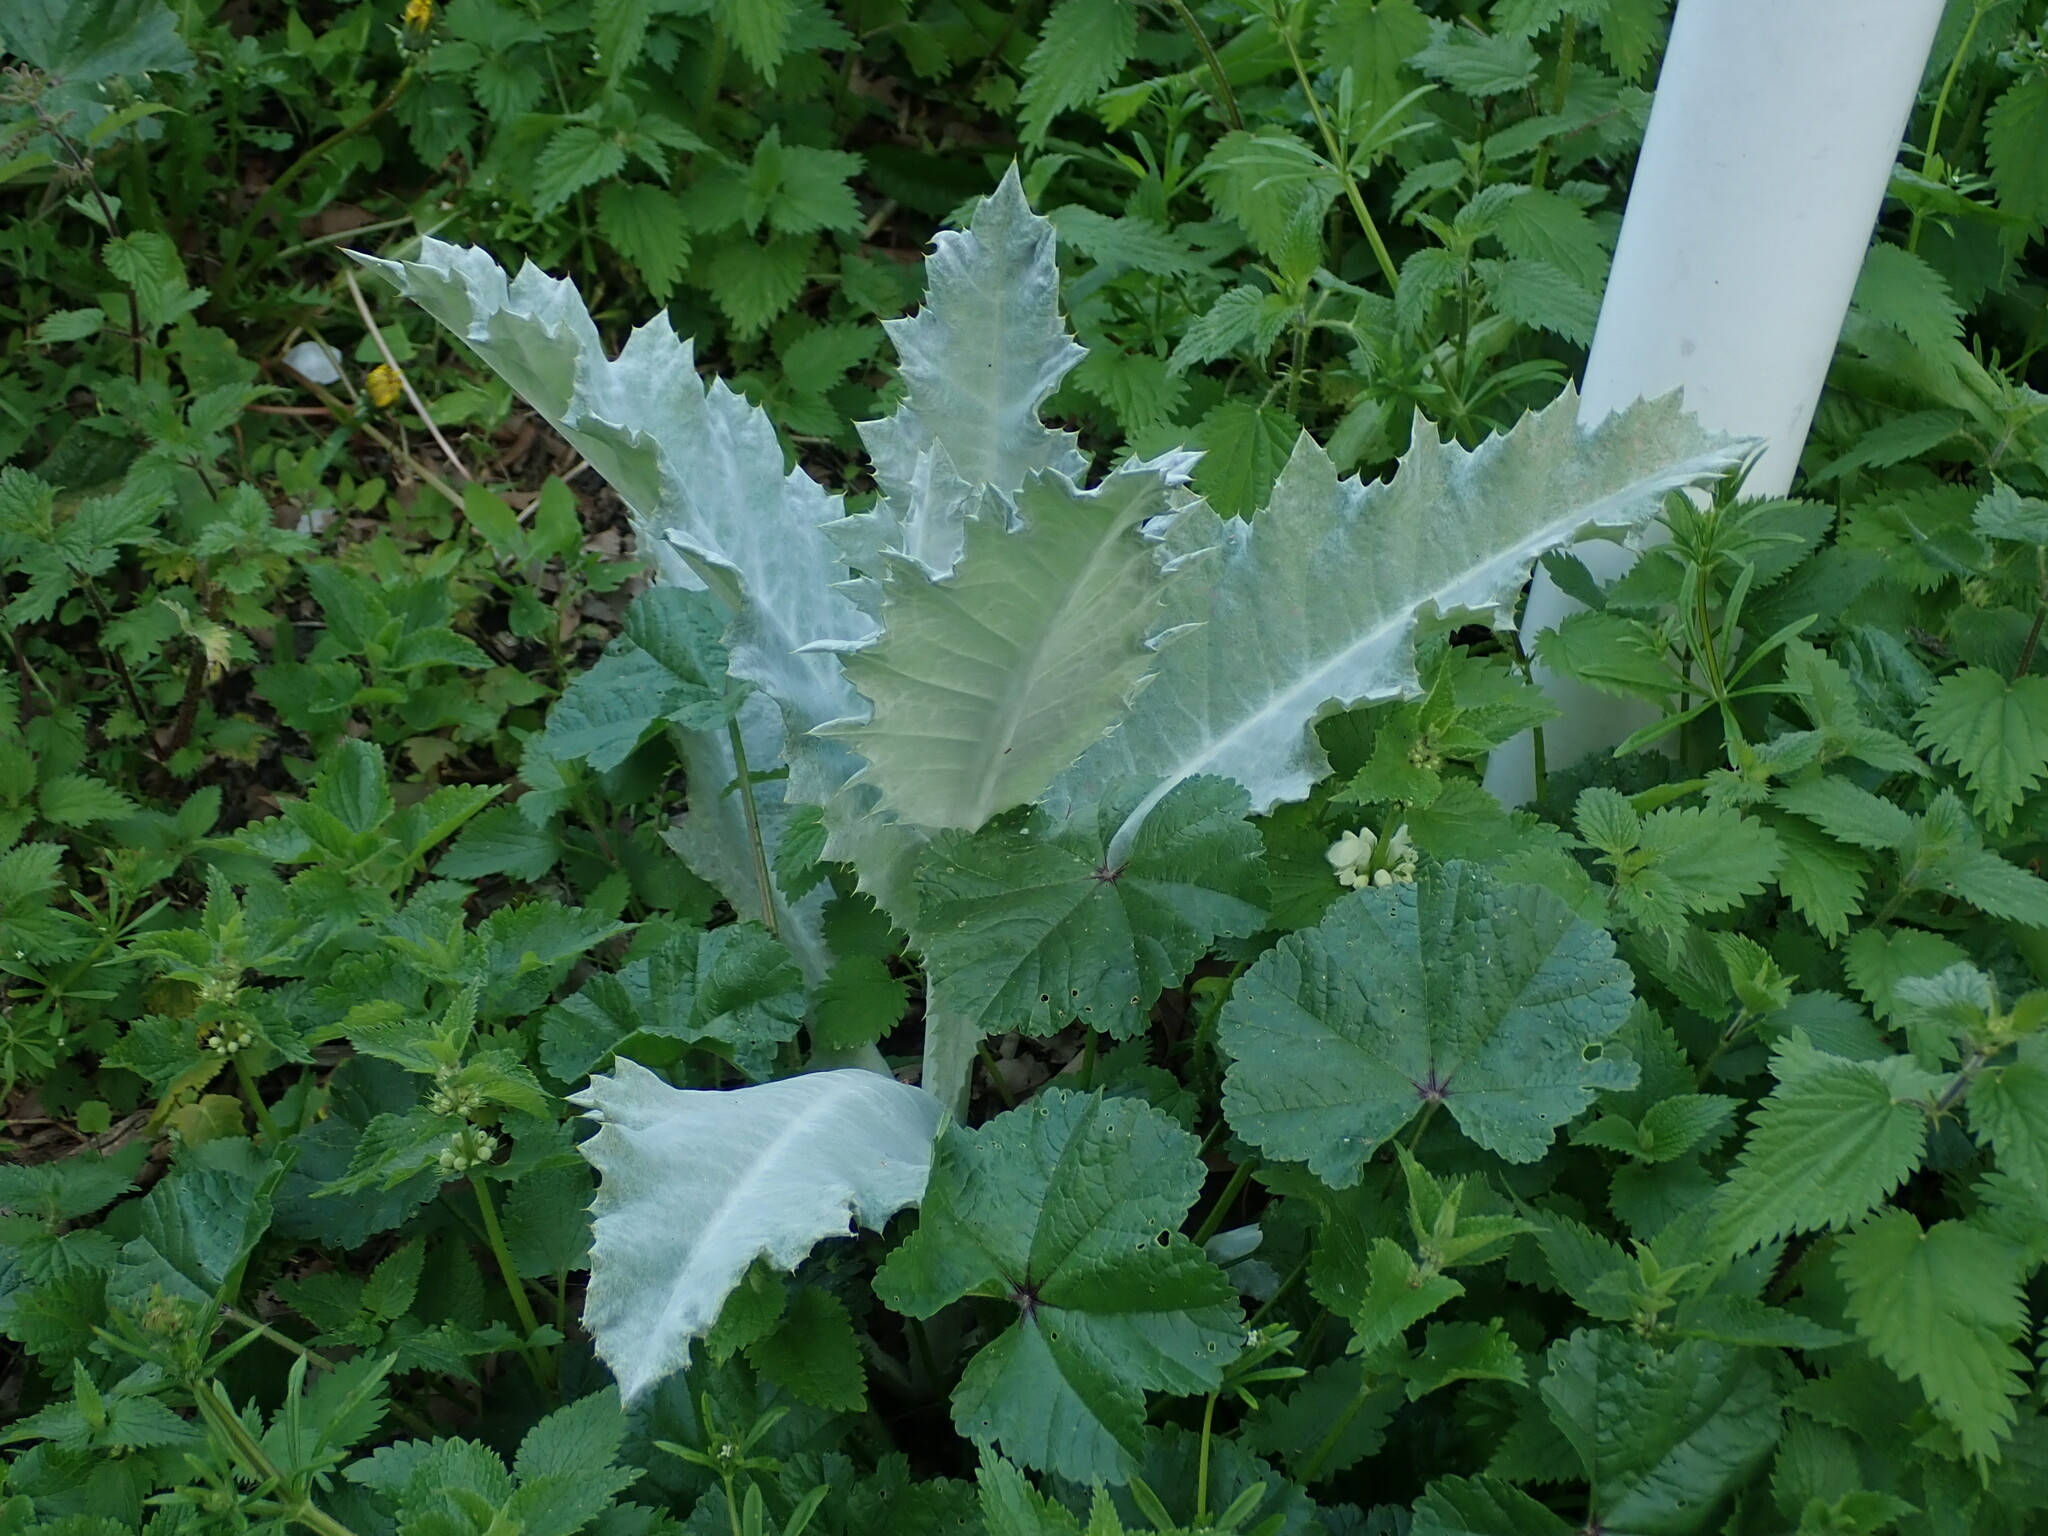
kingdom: Plantae
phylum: Tracheophyta
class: Magnoliopsida
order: Asterales
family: Asteraceae
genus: Onopordum
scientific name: Onopordum acanthium
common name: Scotch thistle
